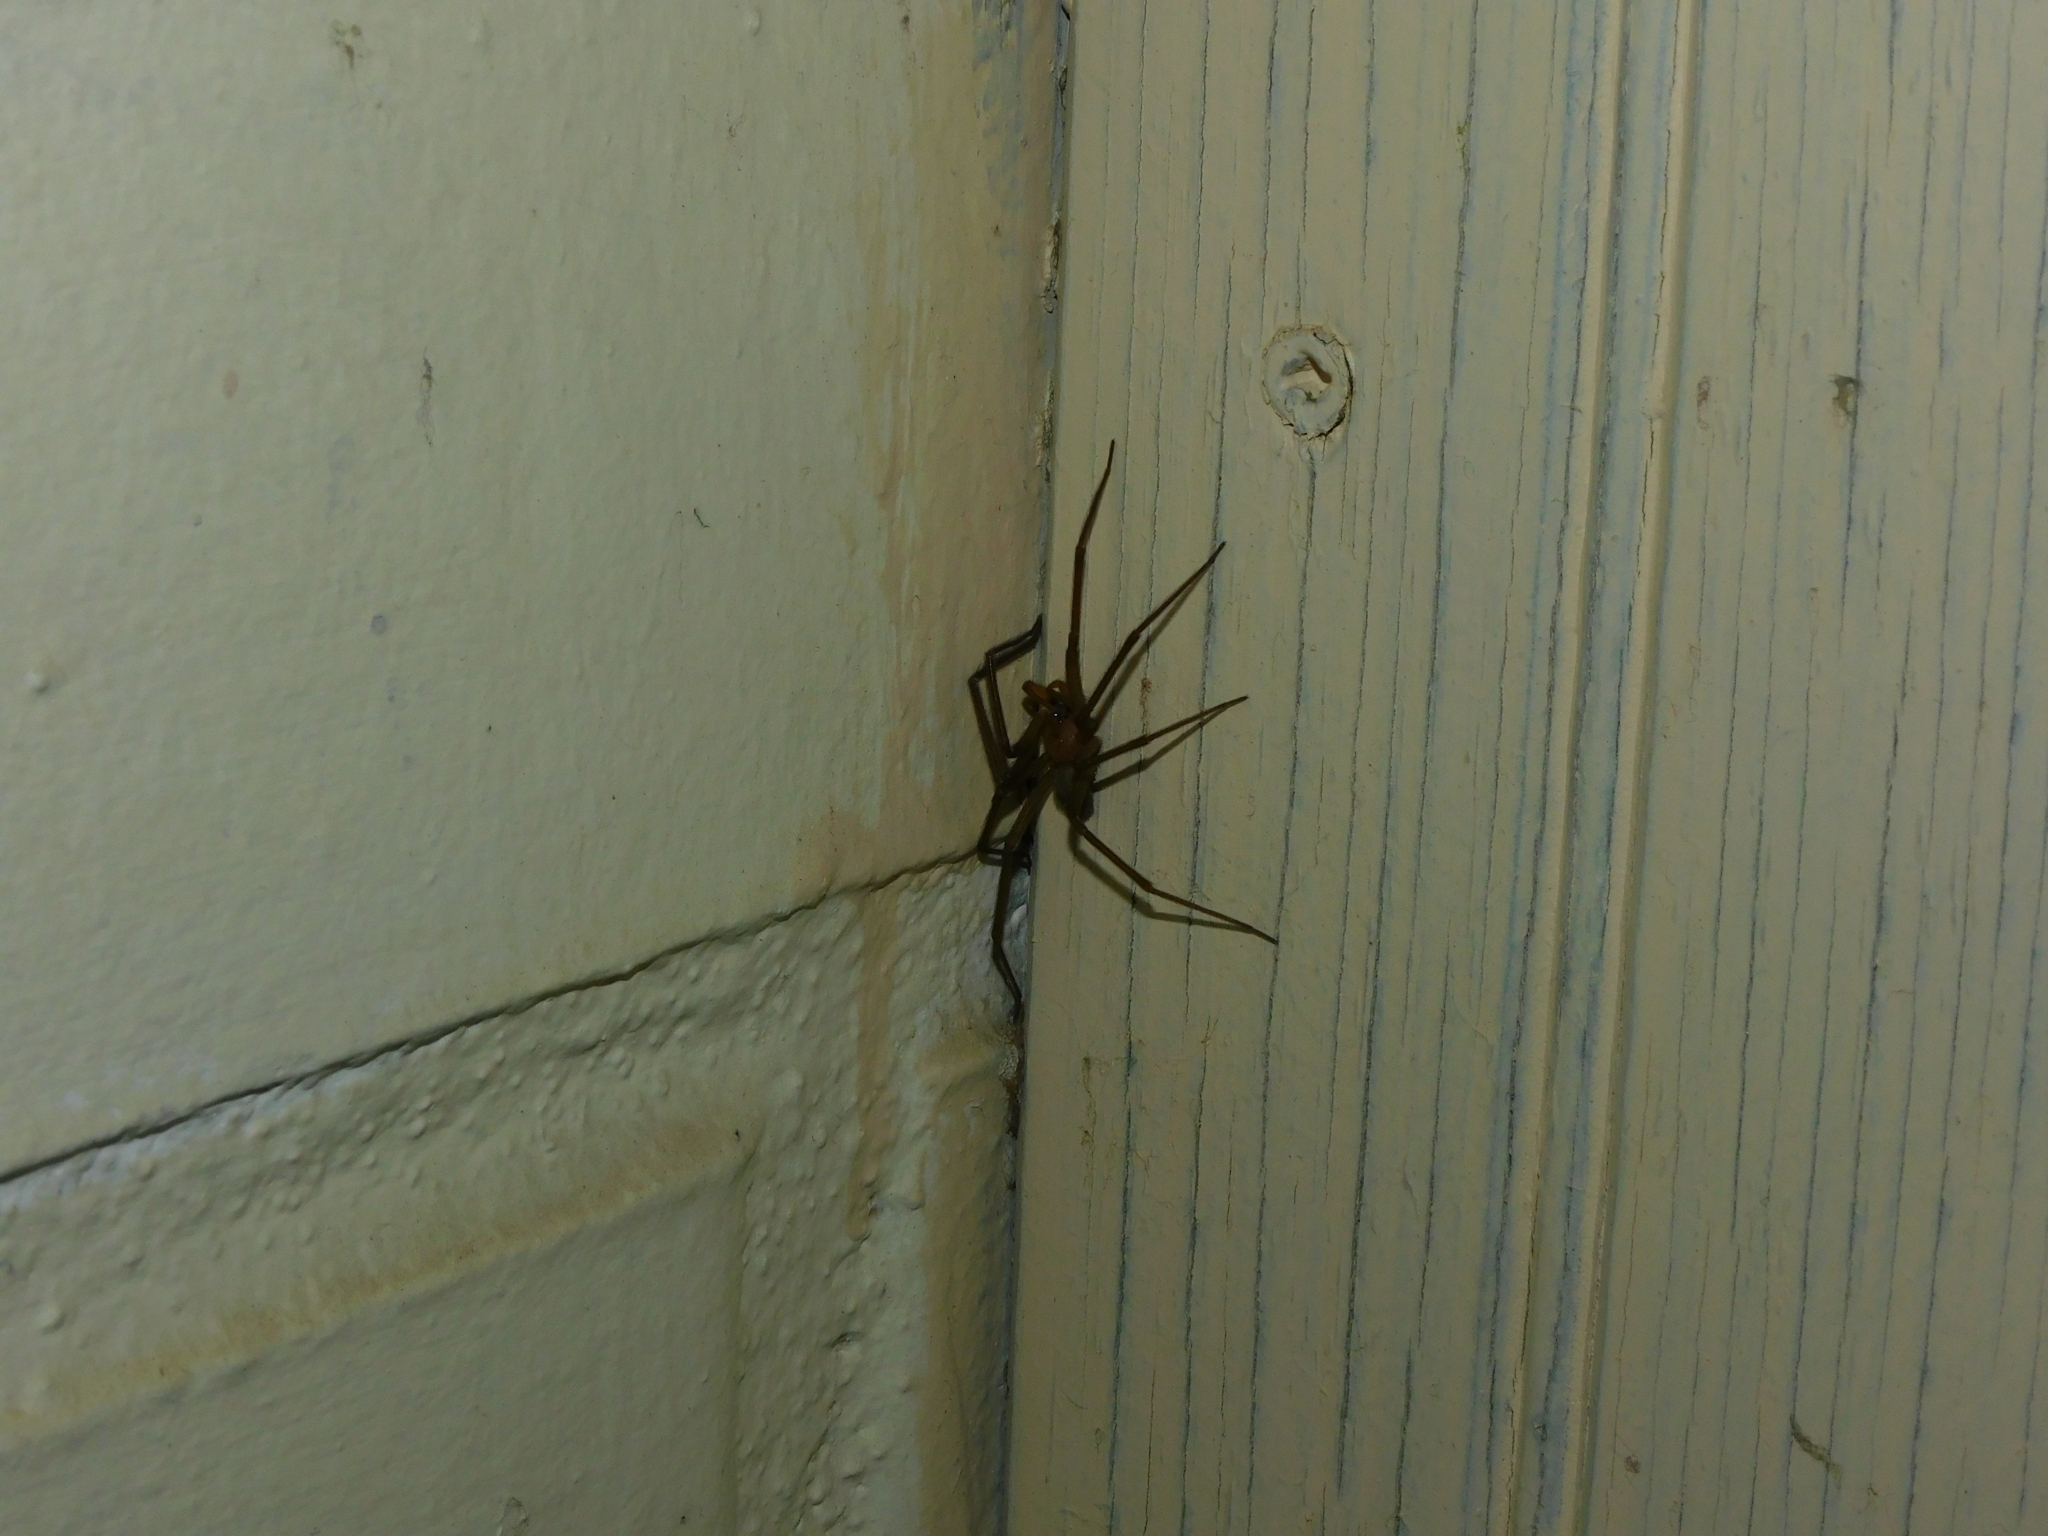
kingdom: Animalia
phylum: Arthropoda
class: Arachnida
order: Araneae
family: Sicariidae
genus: Loxosceles
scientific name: Loxosceles laeta
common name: Chilean recluse spider
